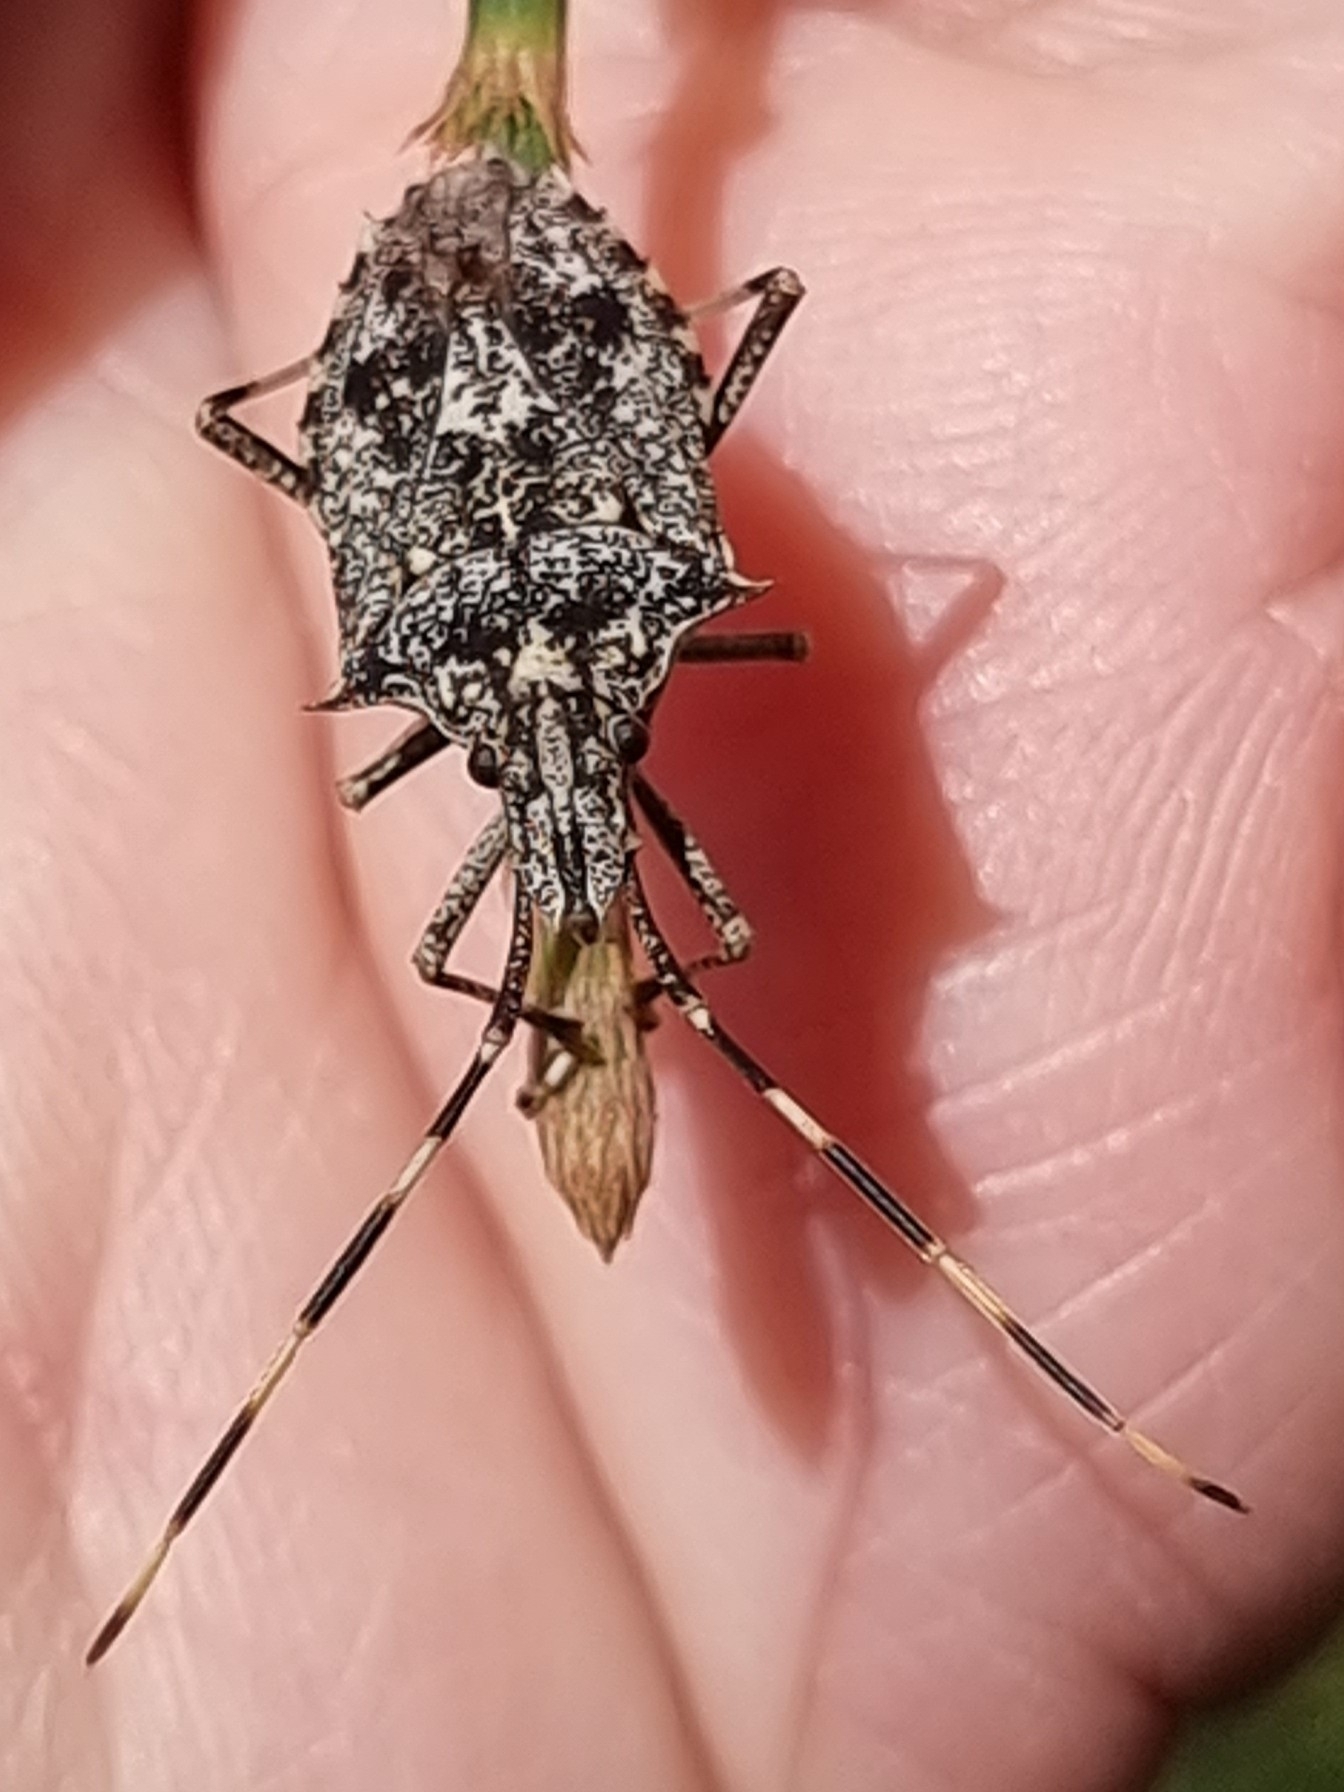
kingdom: Animalia
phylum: Arthropoda
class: Insecta
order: Hemiptera
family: Pentatomidae
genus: Alcaeus
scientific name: Alcaeus
